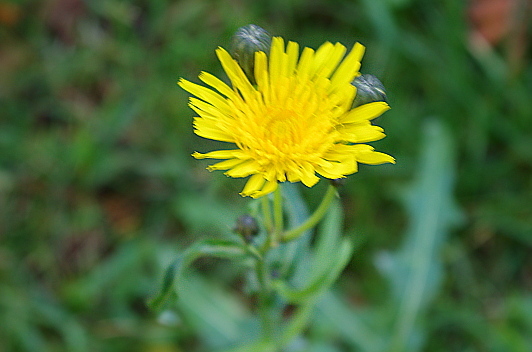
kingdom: Plantae
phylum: Tracheophyta
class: Magnoliopsida
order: Asterales
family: Asteraceae
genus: Sonchus
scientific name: Sonchus arvensis
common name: Perennial sow-thistle
